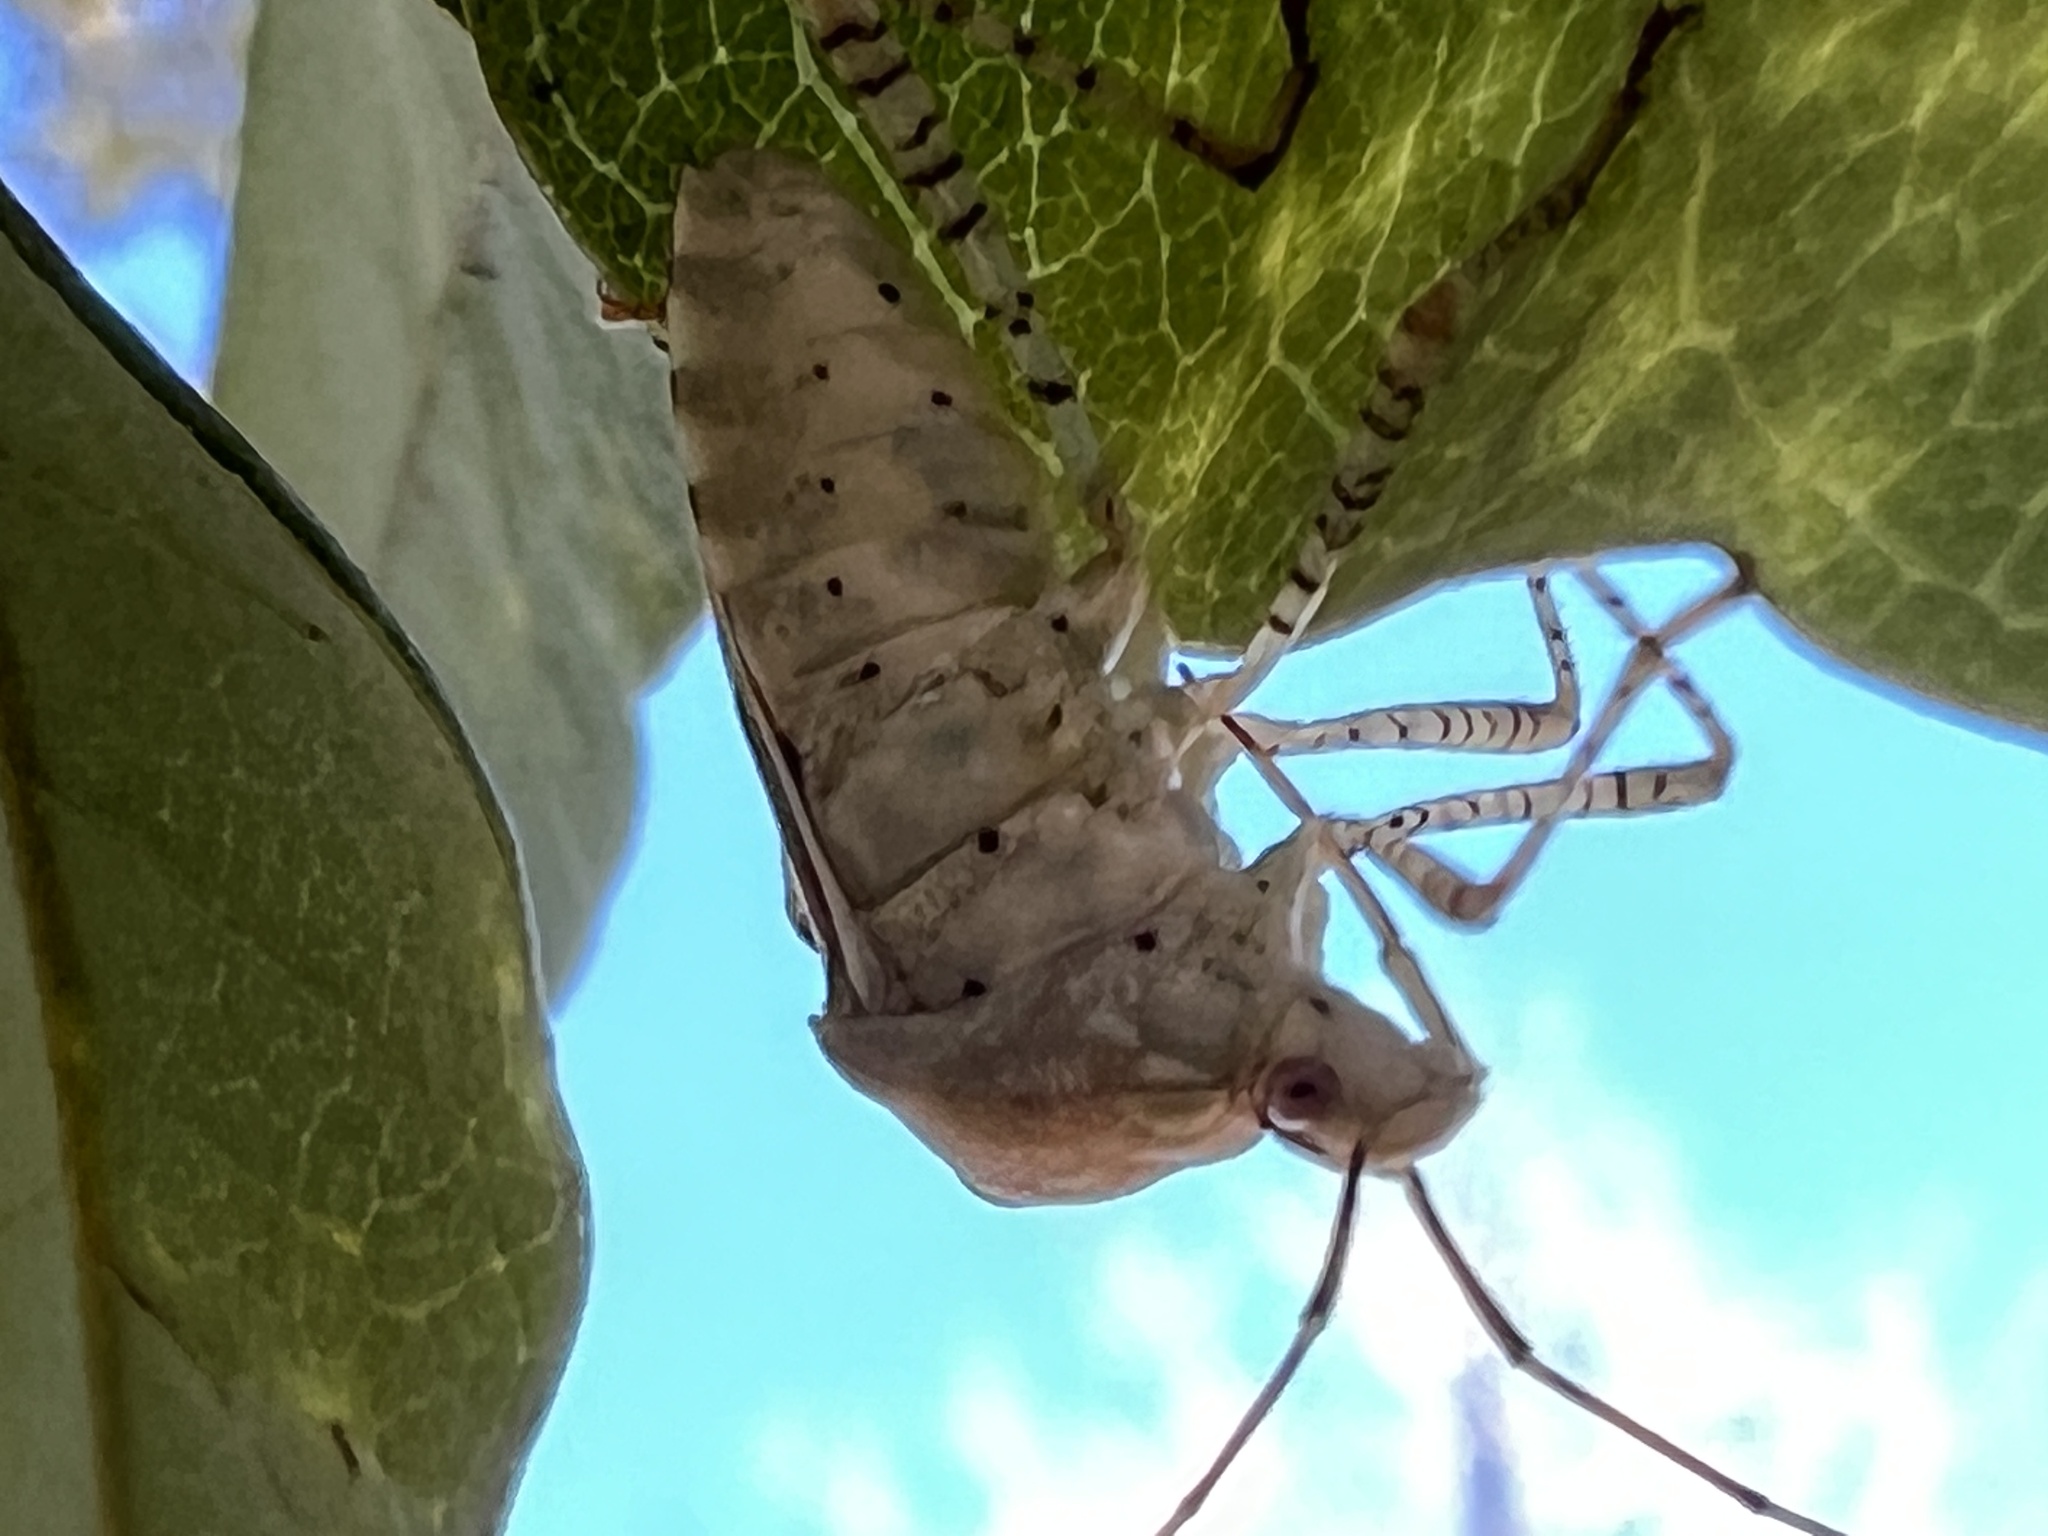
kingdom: Animalia
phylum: Arthropoda
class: Insecta
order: Hemiptera
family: Coreidae
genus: Hypselonotus
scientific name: Hypselonotus punctiventris
